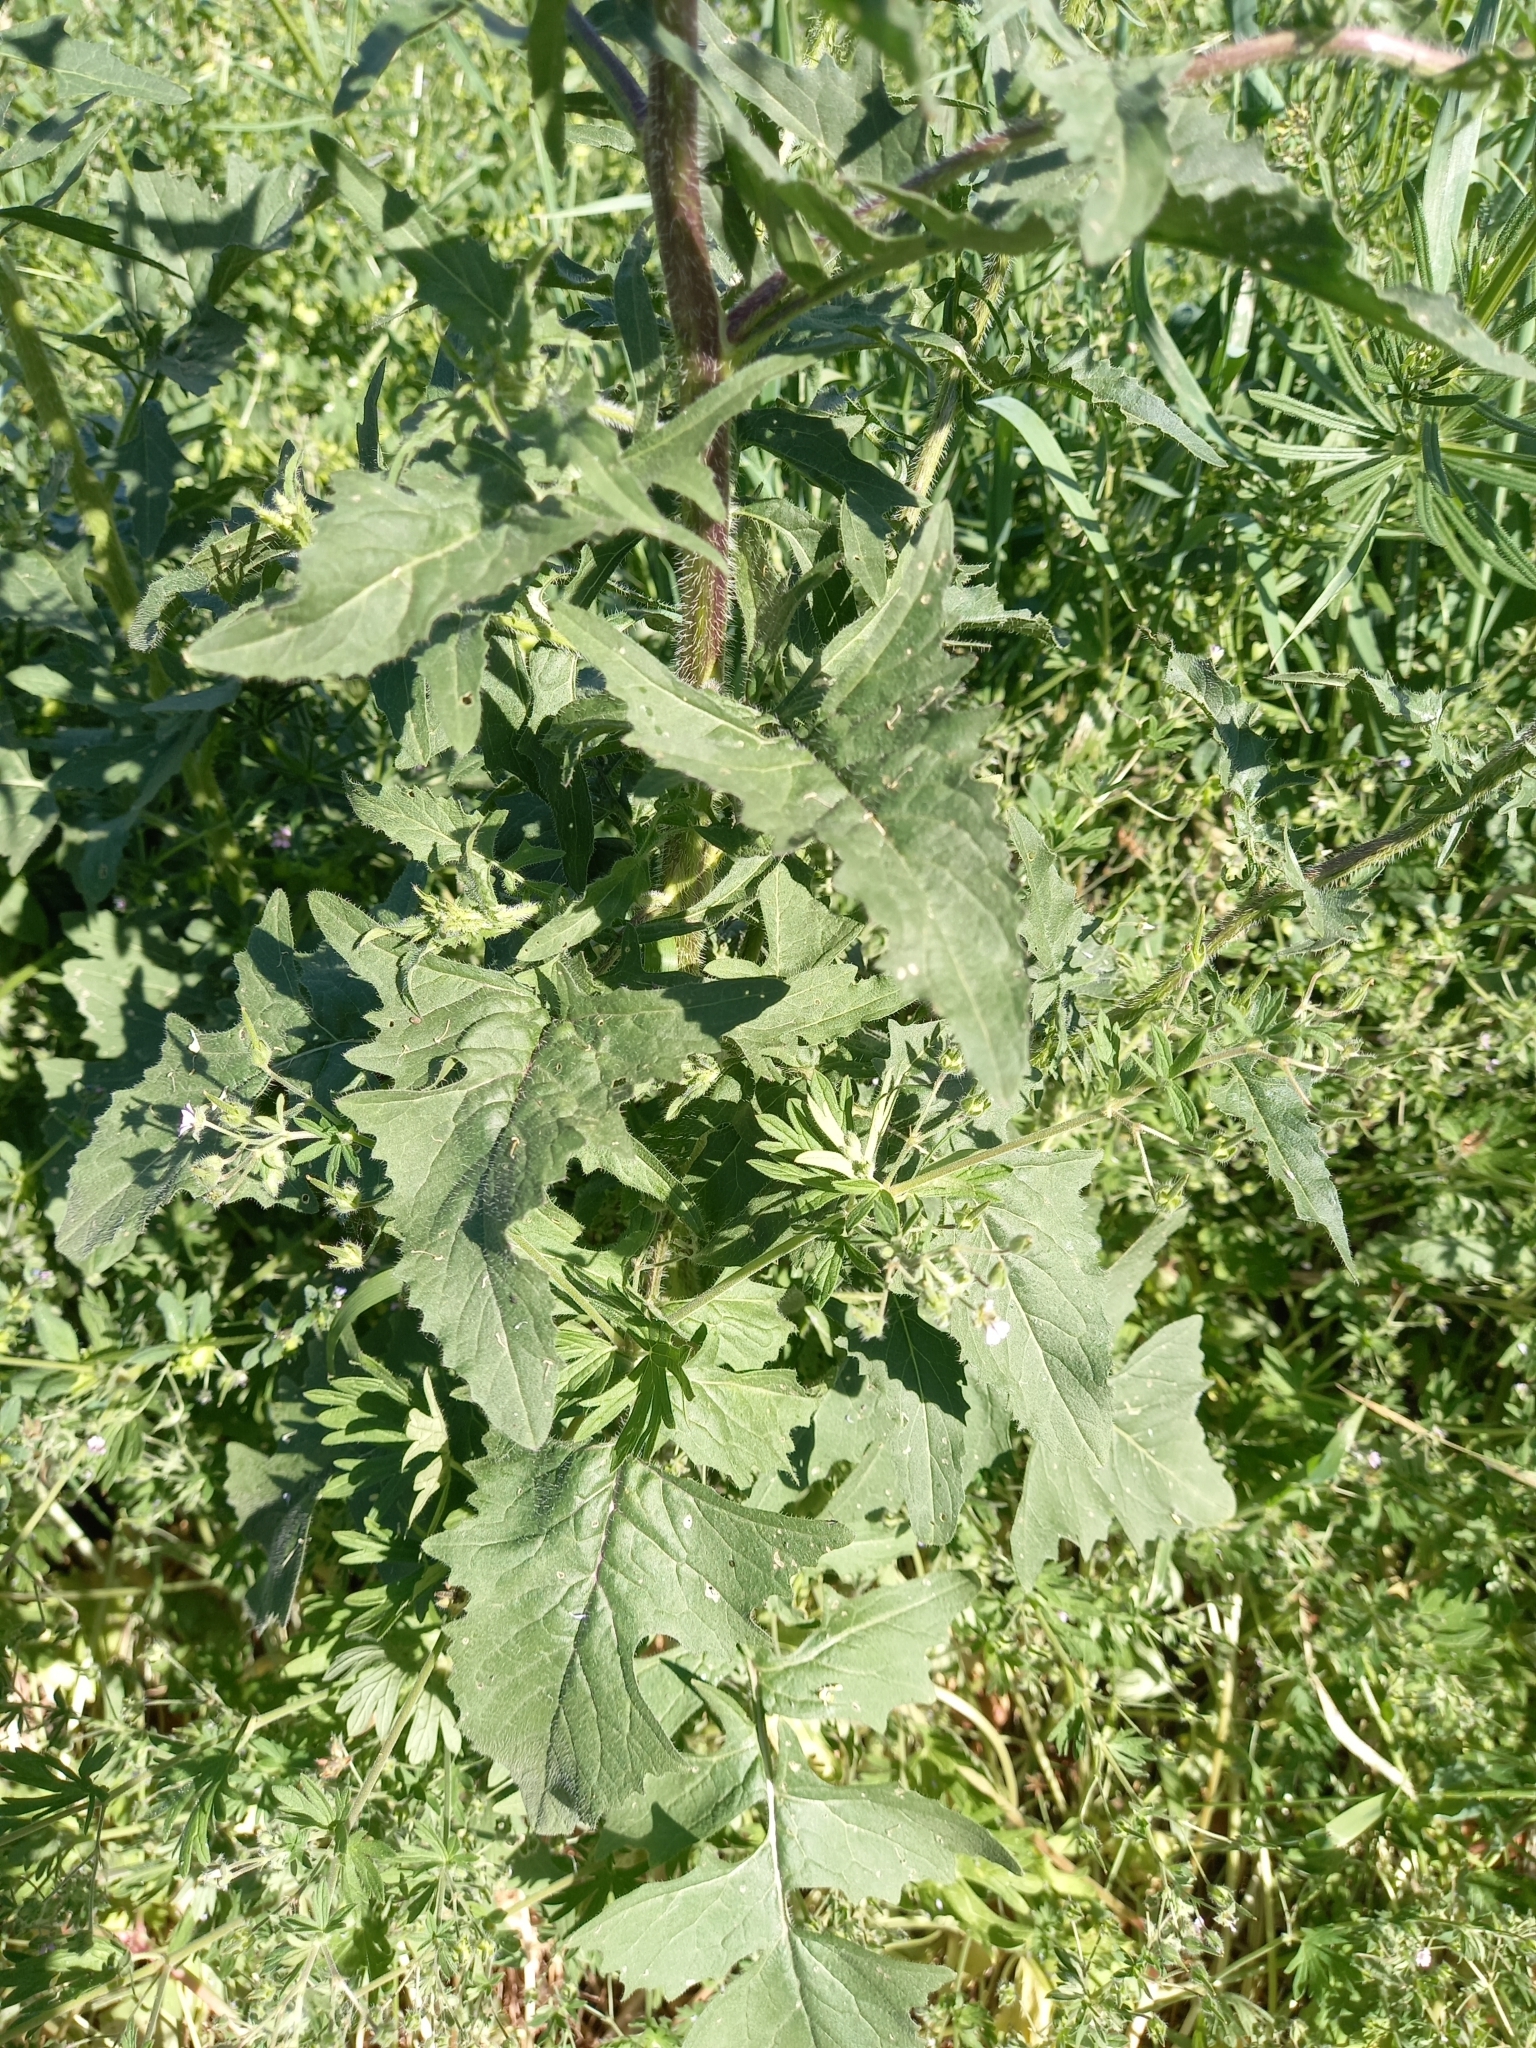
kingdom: Plantae
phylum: Tracheophyta
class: Magnoliopsida
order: Brassicales
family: Brassicaceae
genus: Sisymbrium
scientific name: Sisymbrium loeselii
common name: False london-rocket
